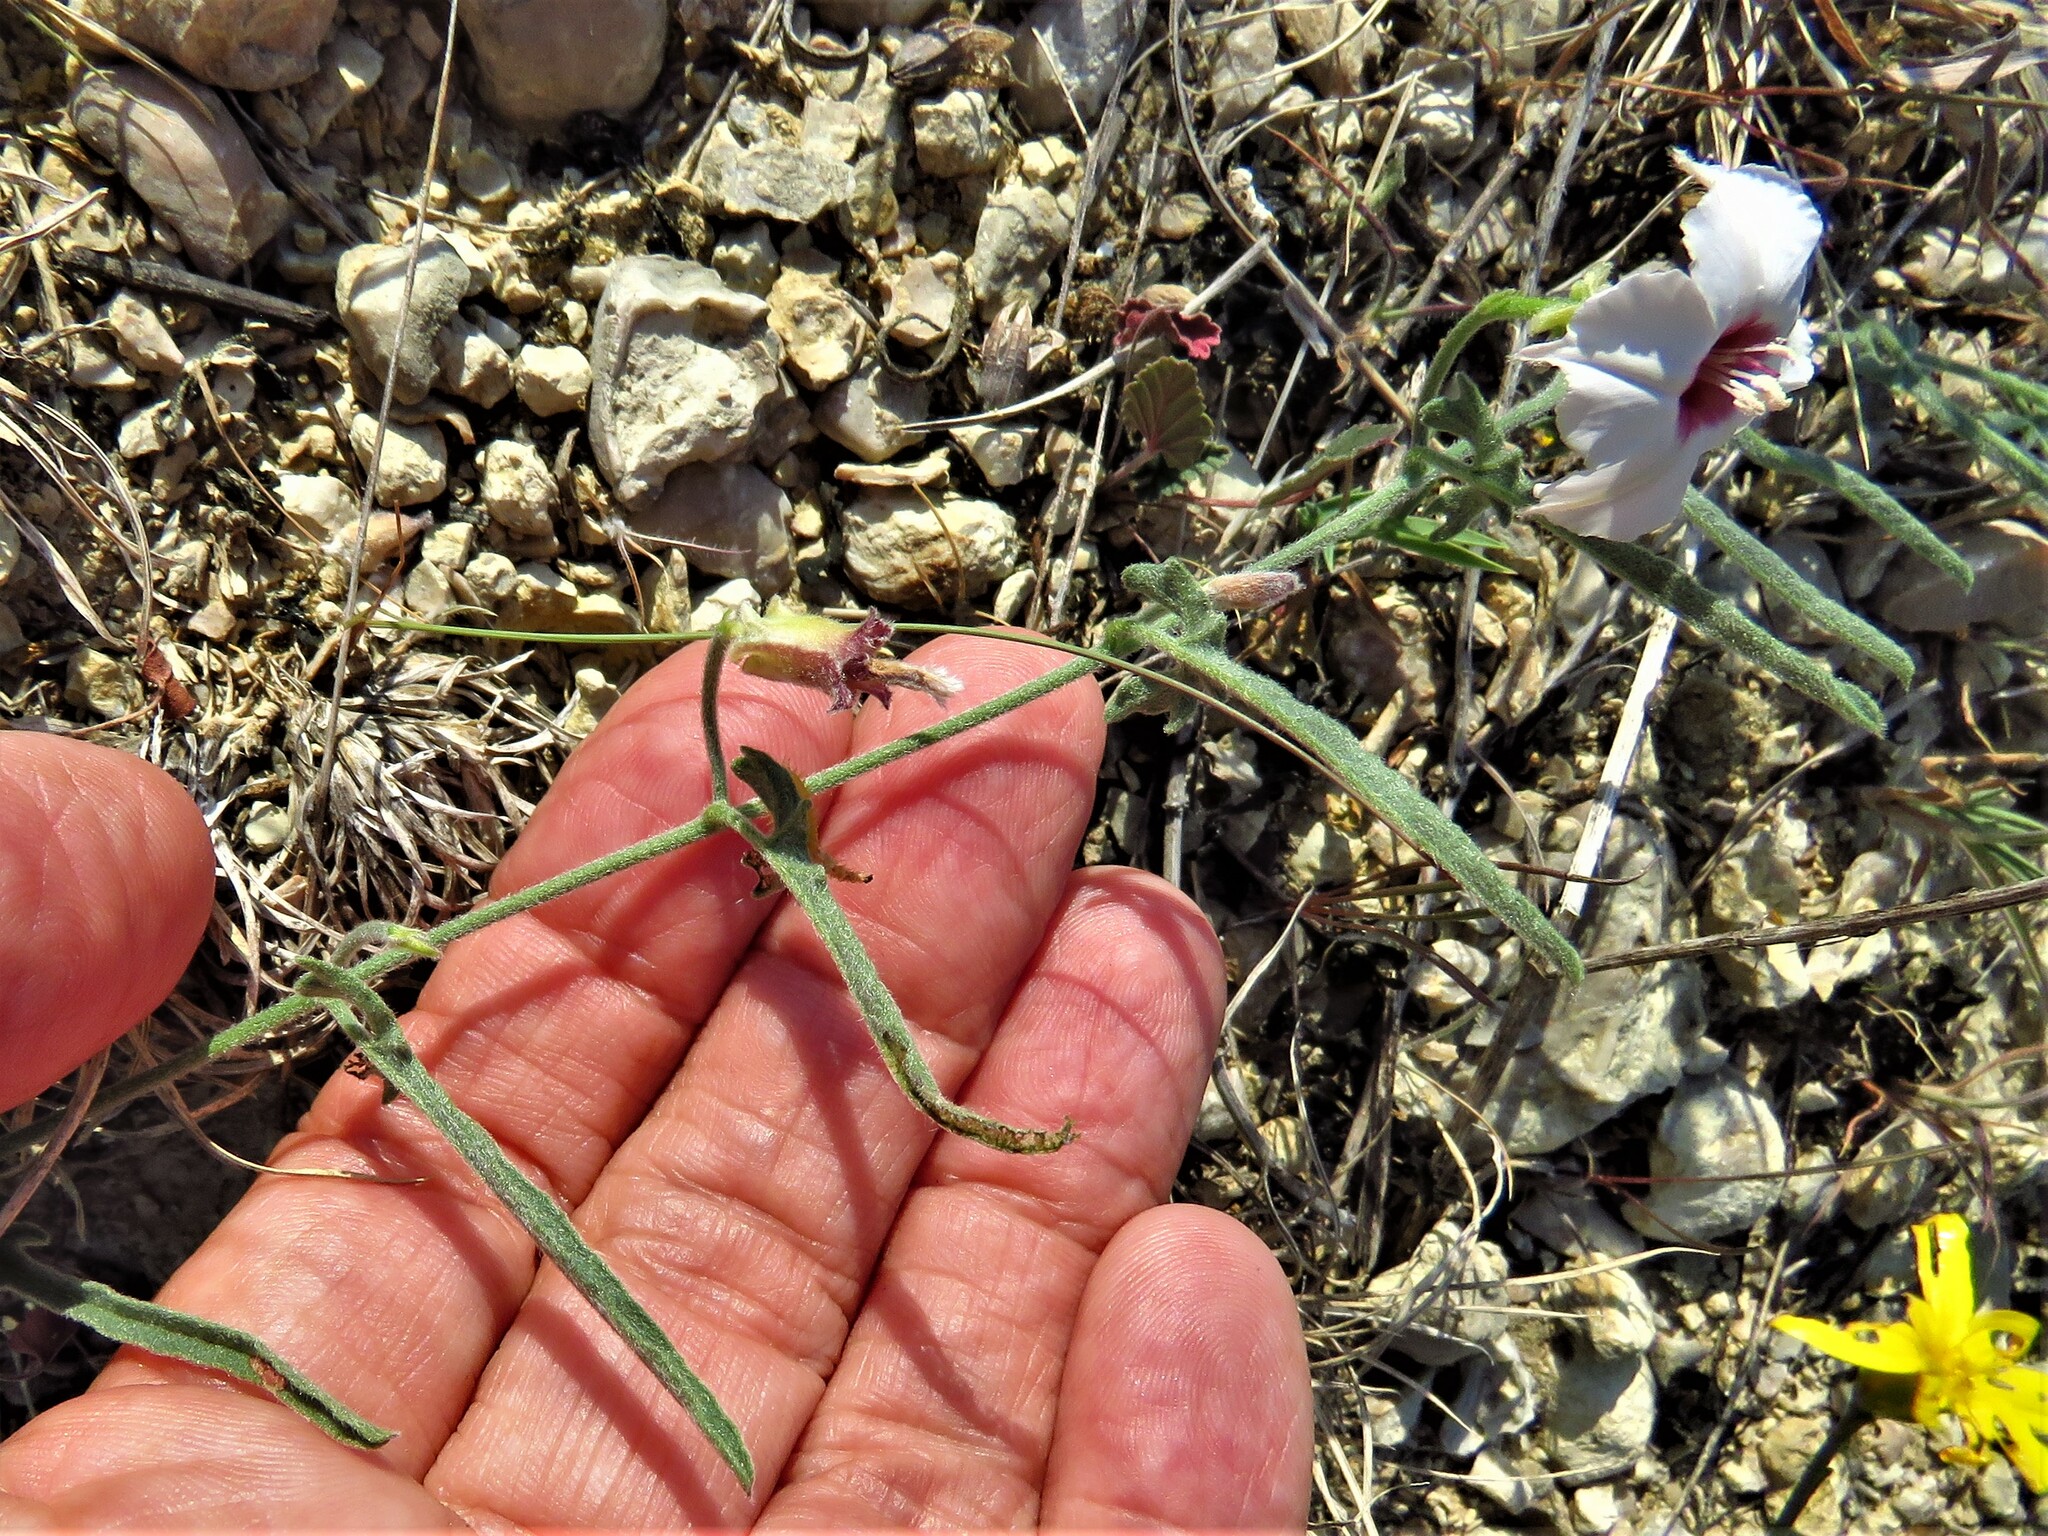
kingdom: Plantae
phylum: Tracheophyta
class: Magnoliopsida
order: Solanales
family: Convolvulaceae
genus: Convolvulus
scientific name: Convolvulus equitans
